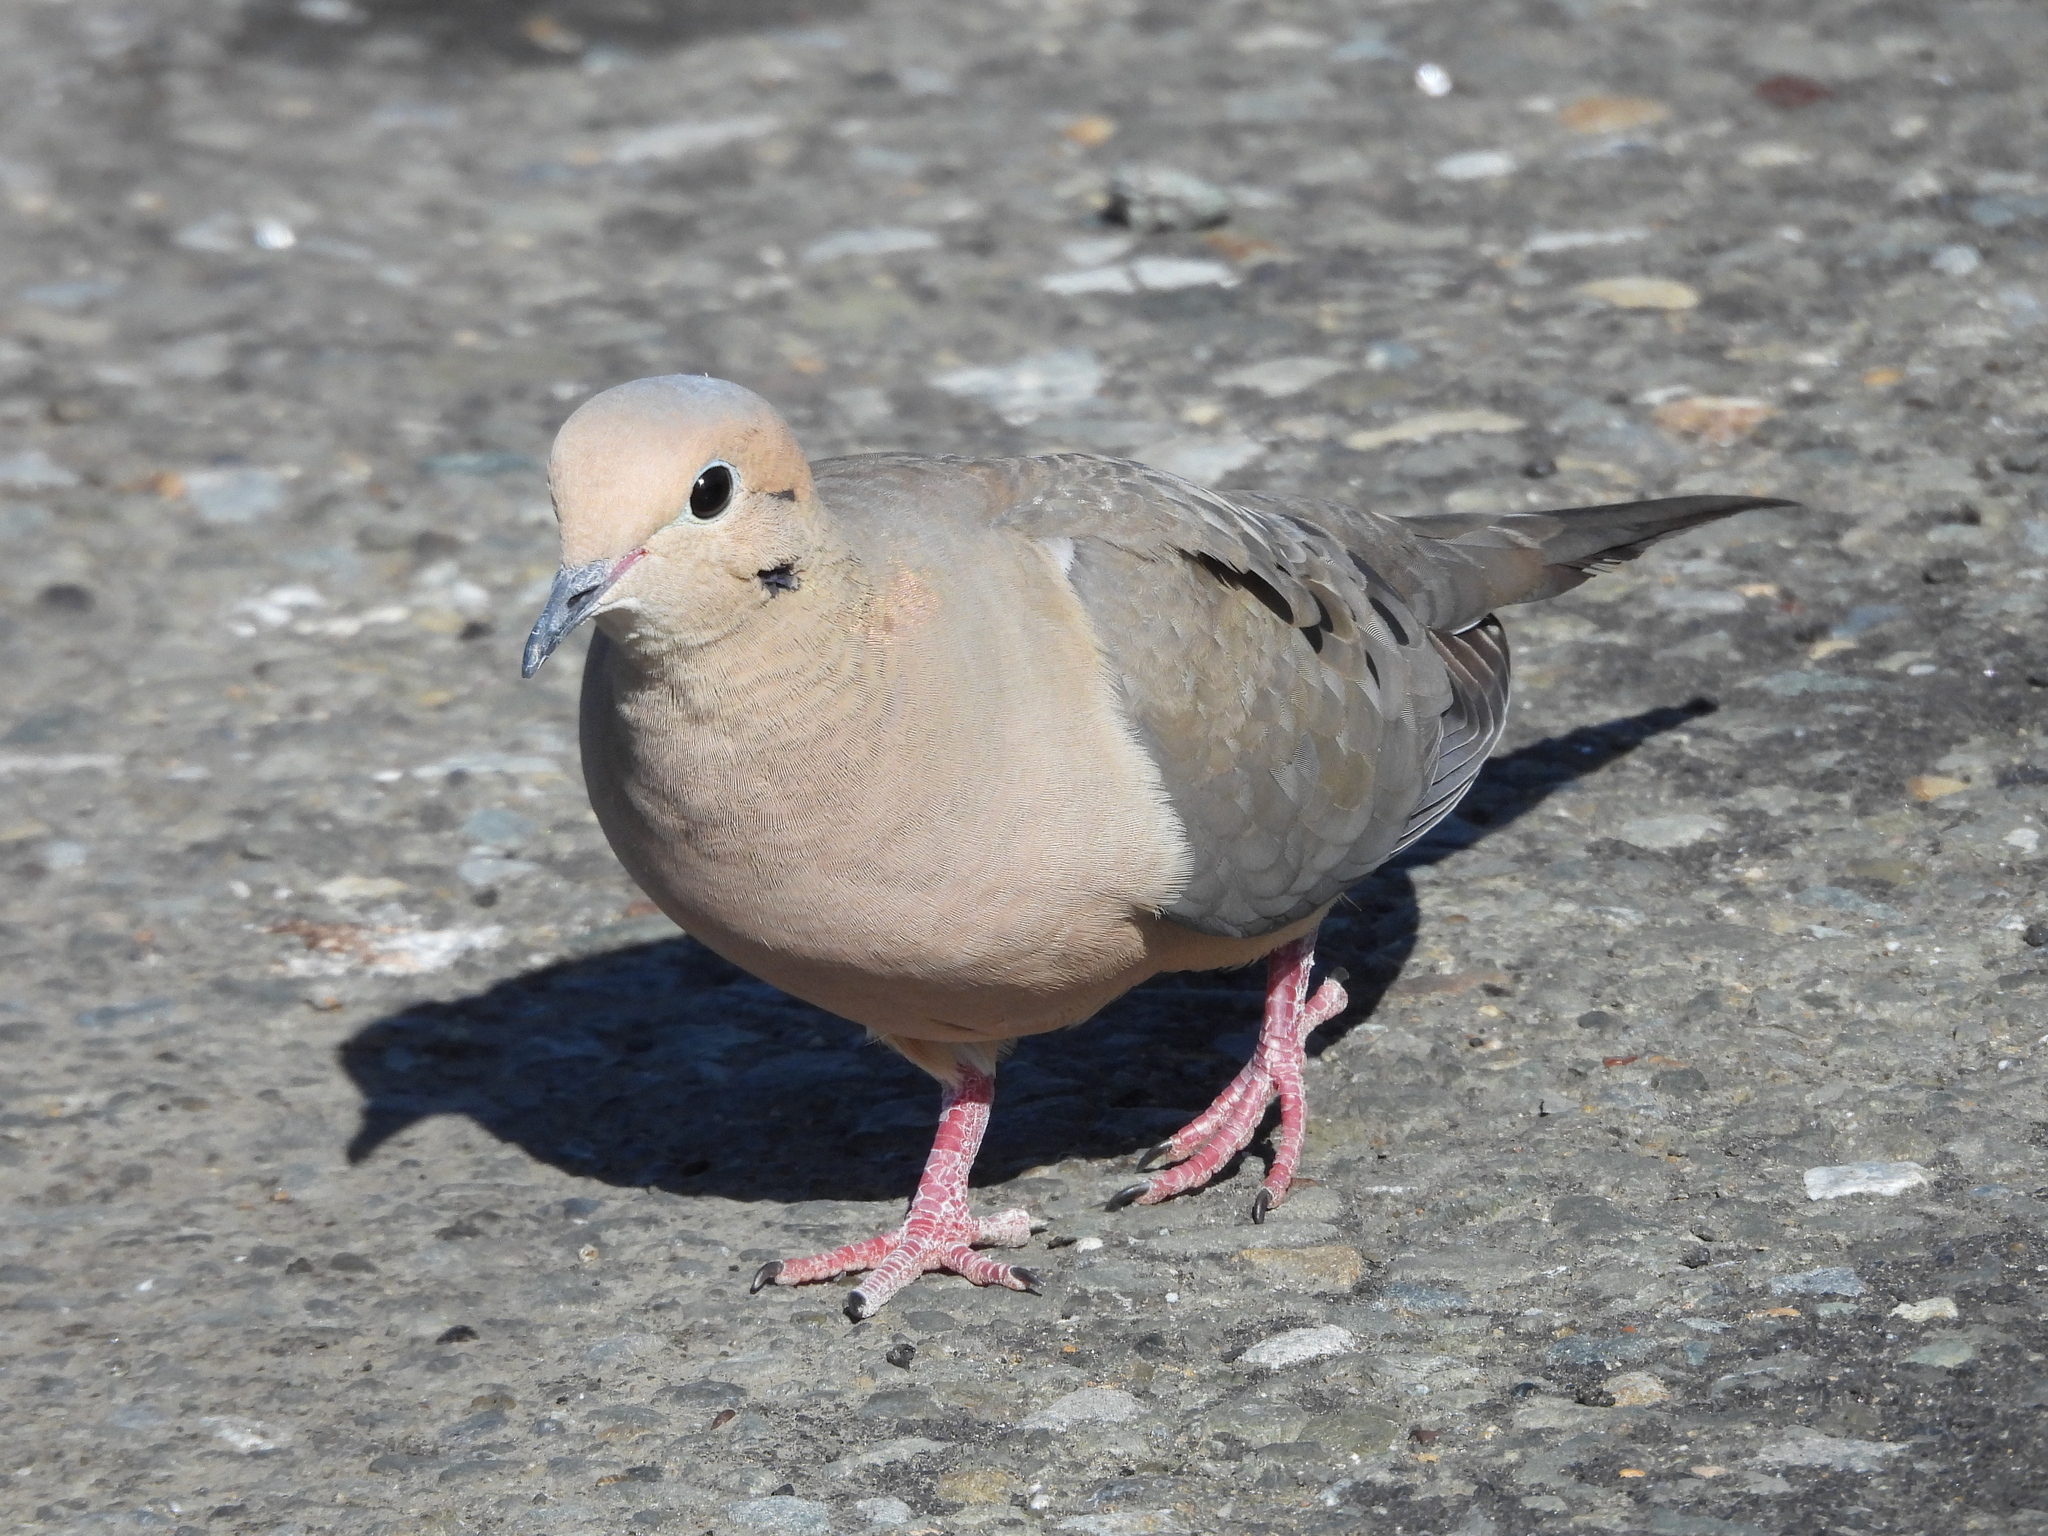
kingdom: Animalia
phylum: Chordata
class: Aves
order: Columbiformes
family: Columbidae
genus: Zenaida
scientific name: Zenaida macroura
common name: Mourning dove
